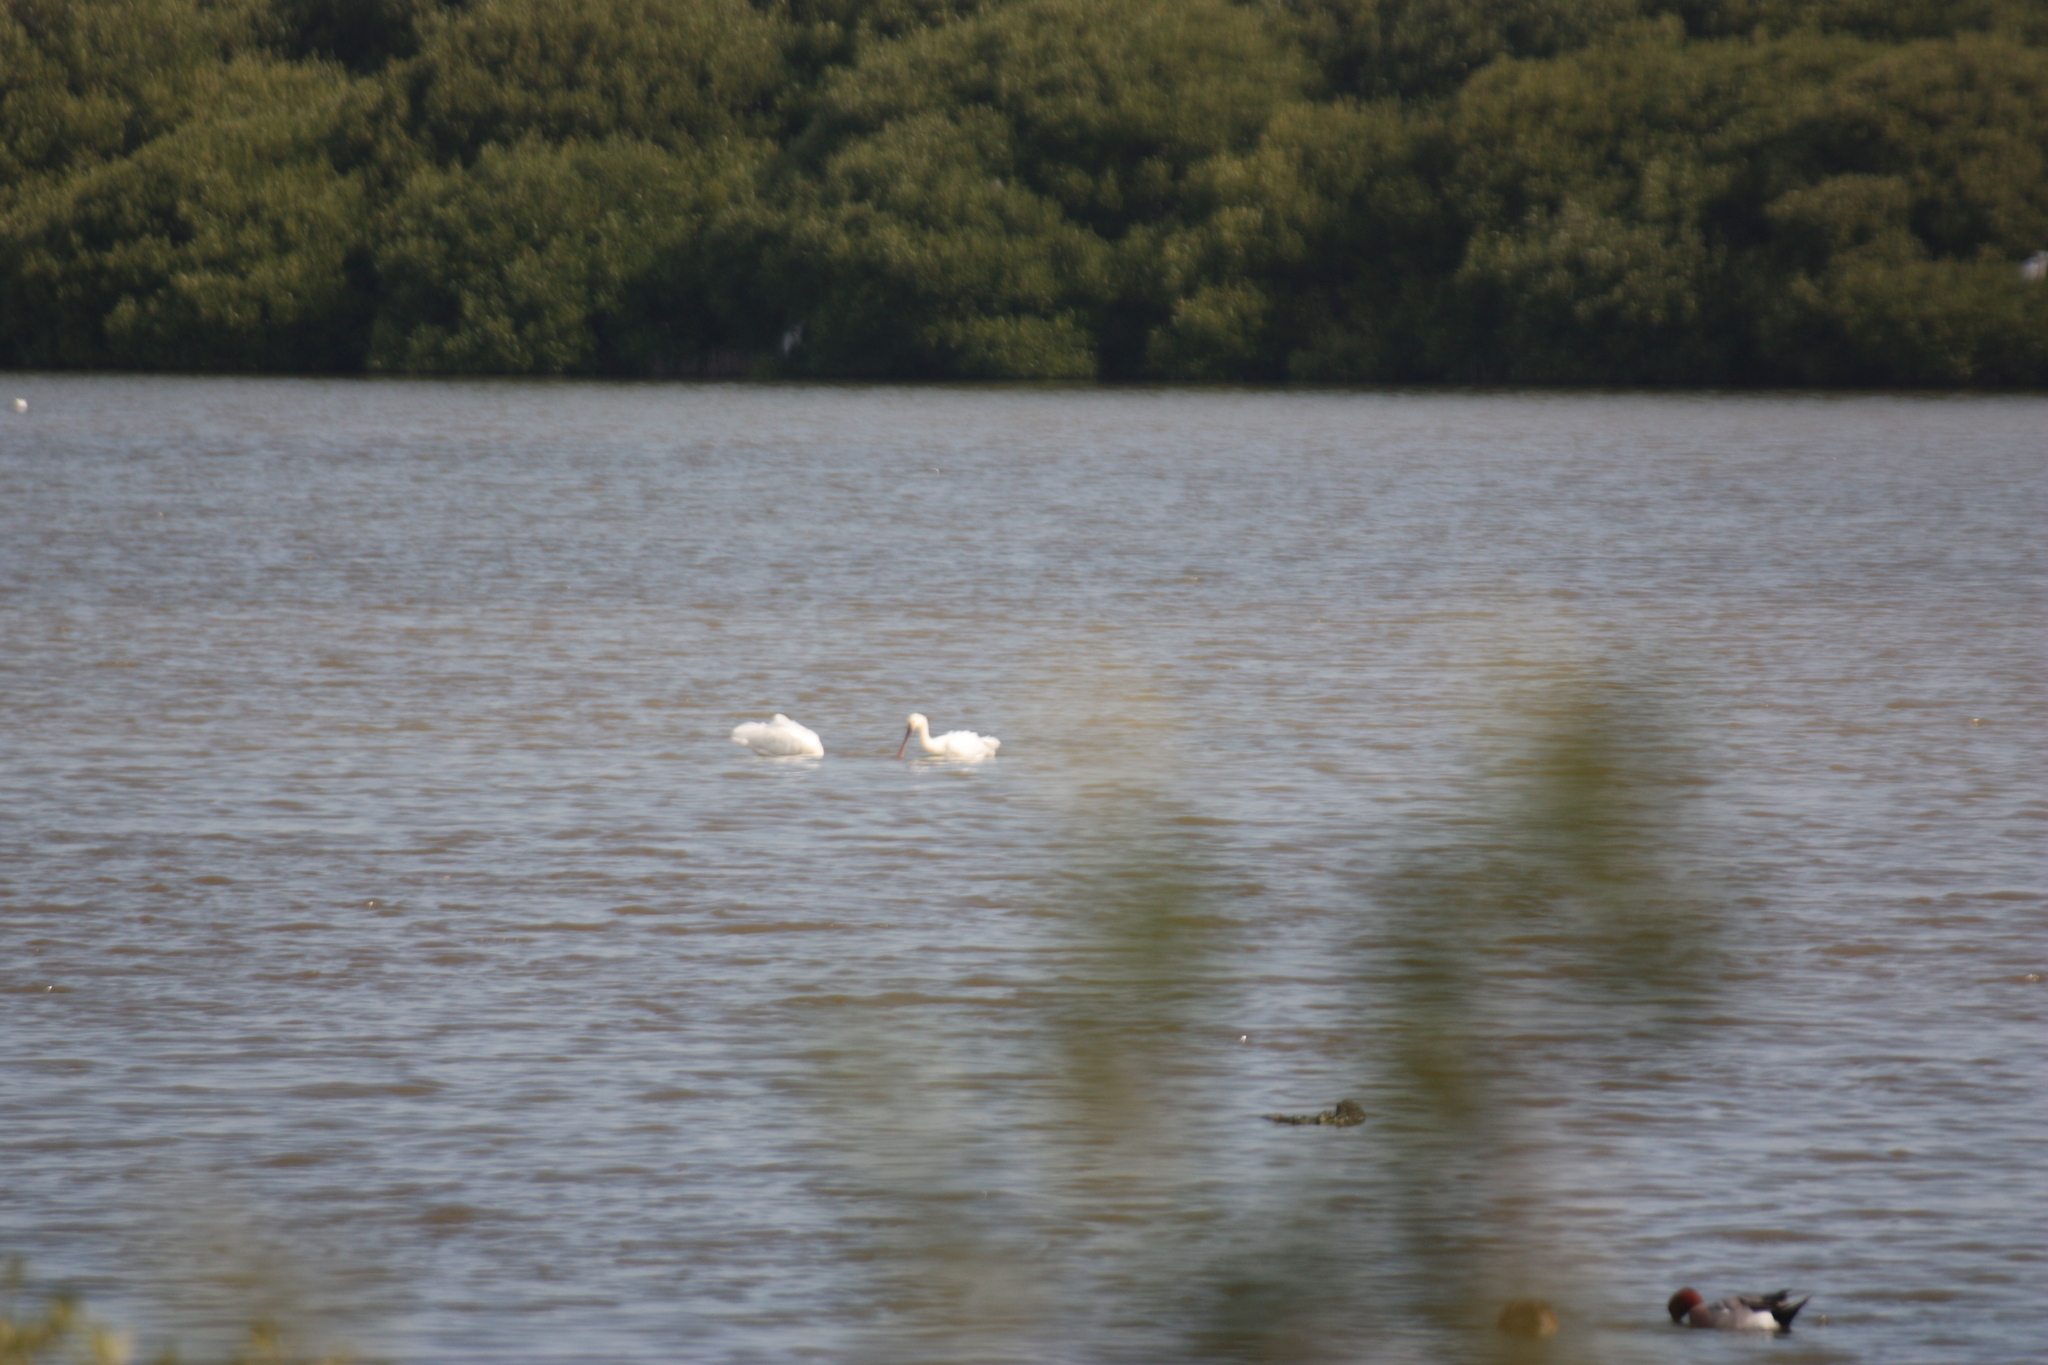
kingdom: Animalia
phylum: Chordata
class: Aves
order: Pelecaniformes
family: Threskiornithidae
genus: Platalea
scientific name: Platalea leucorodia
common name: Eurasian spoonbill
